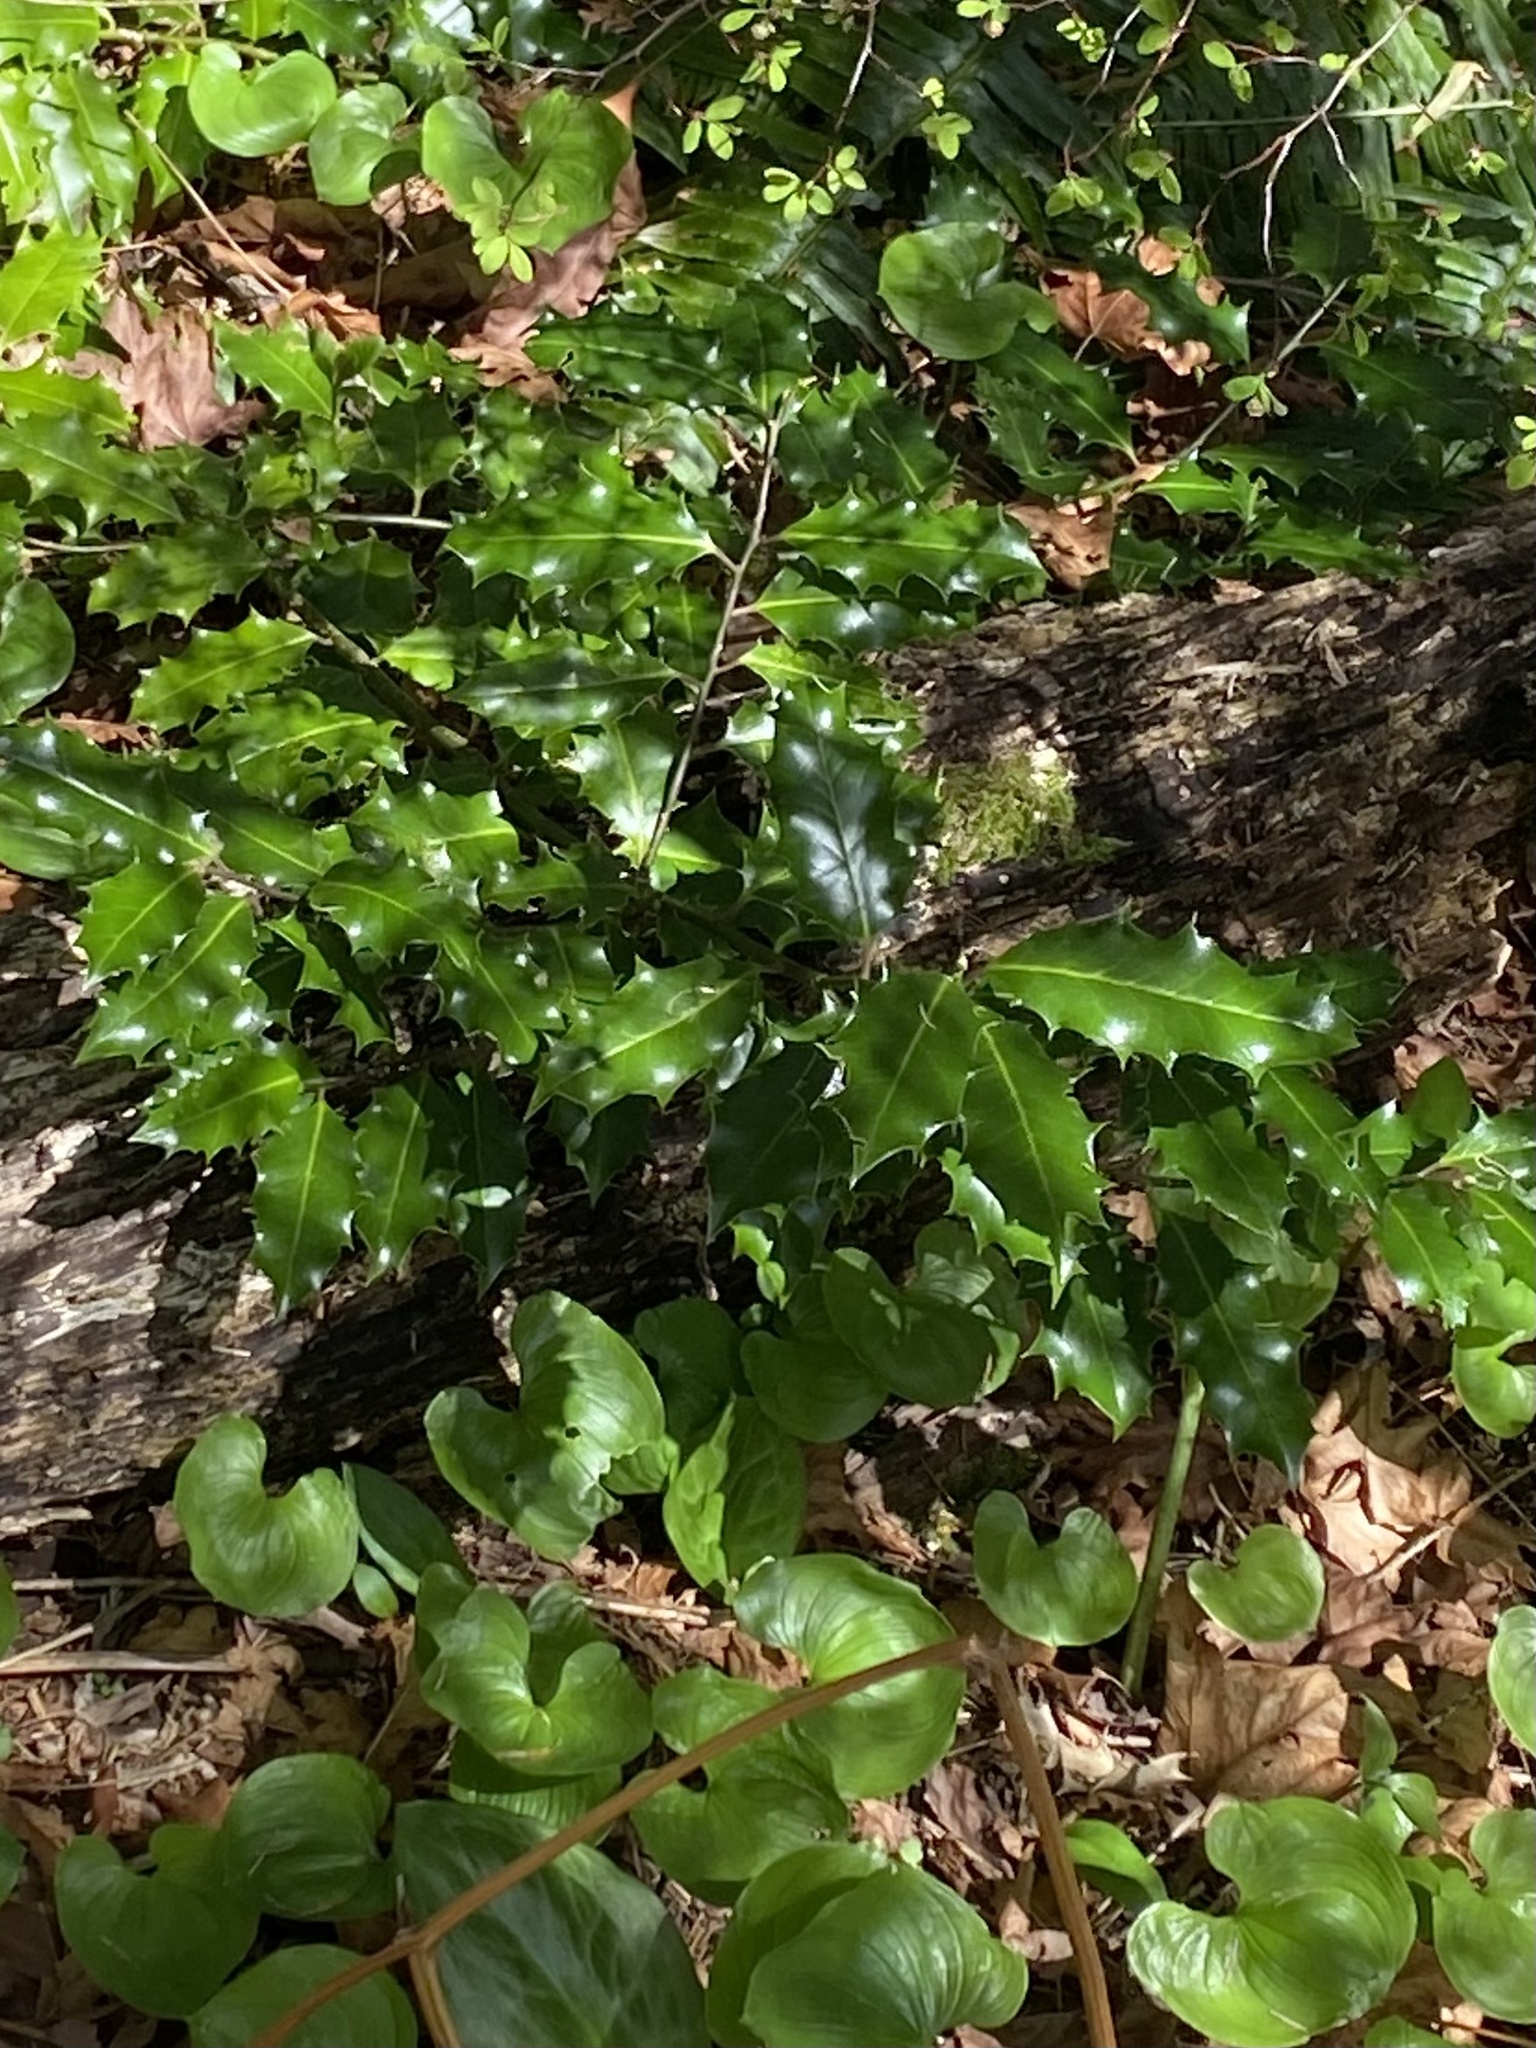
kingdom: Plantae
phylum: Tracheophyta
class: Magnoliopsida
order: Aquifoliales
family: Aquifoliaceae
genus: Ilex
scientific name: Ilex aquifolium
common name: English holly
